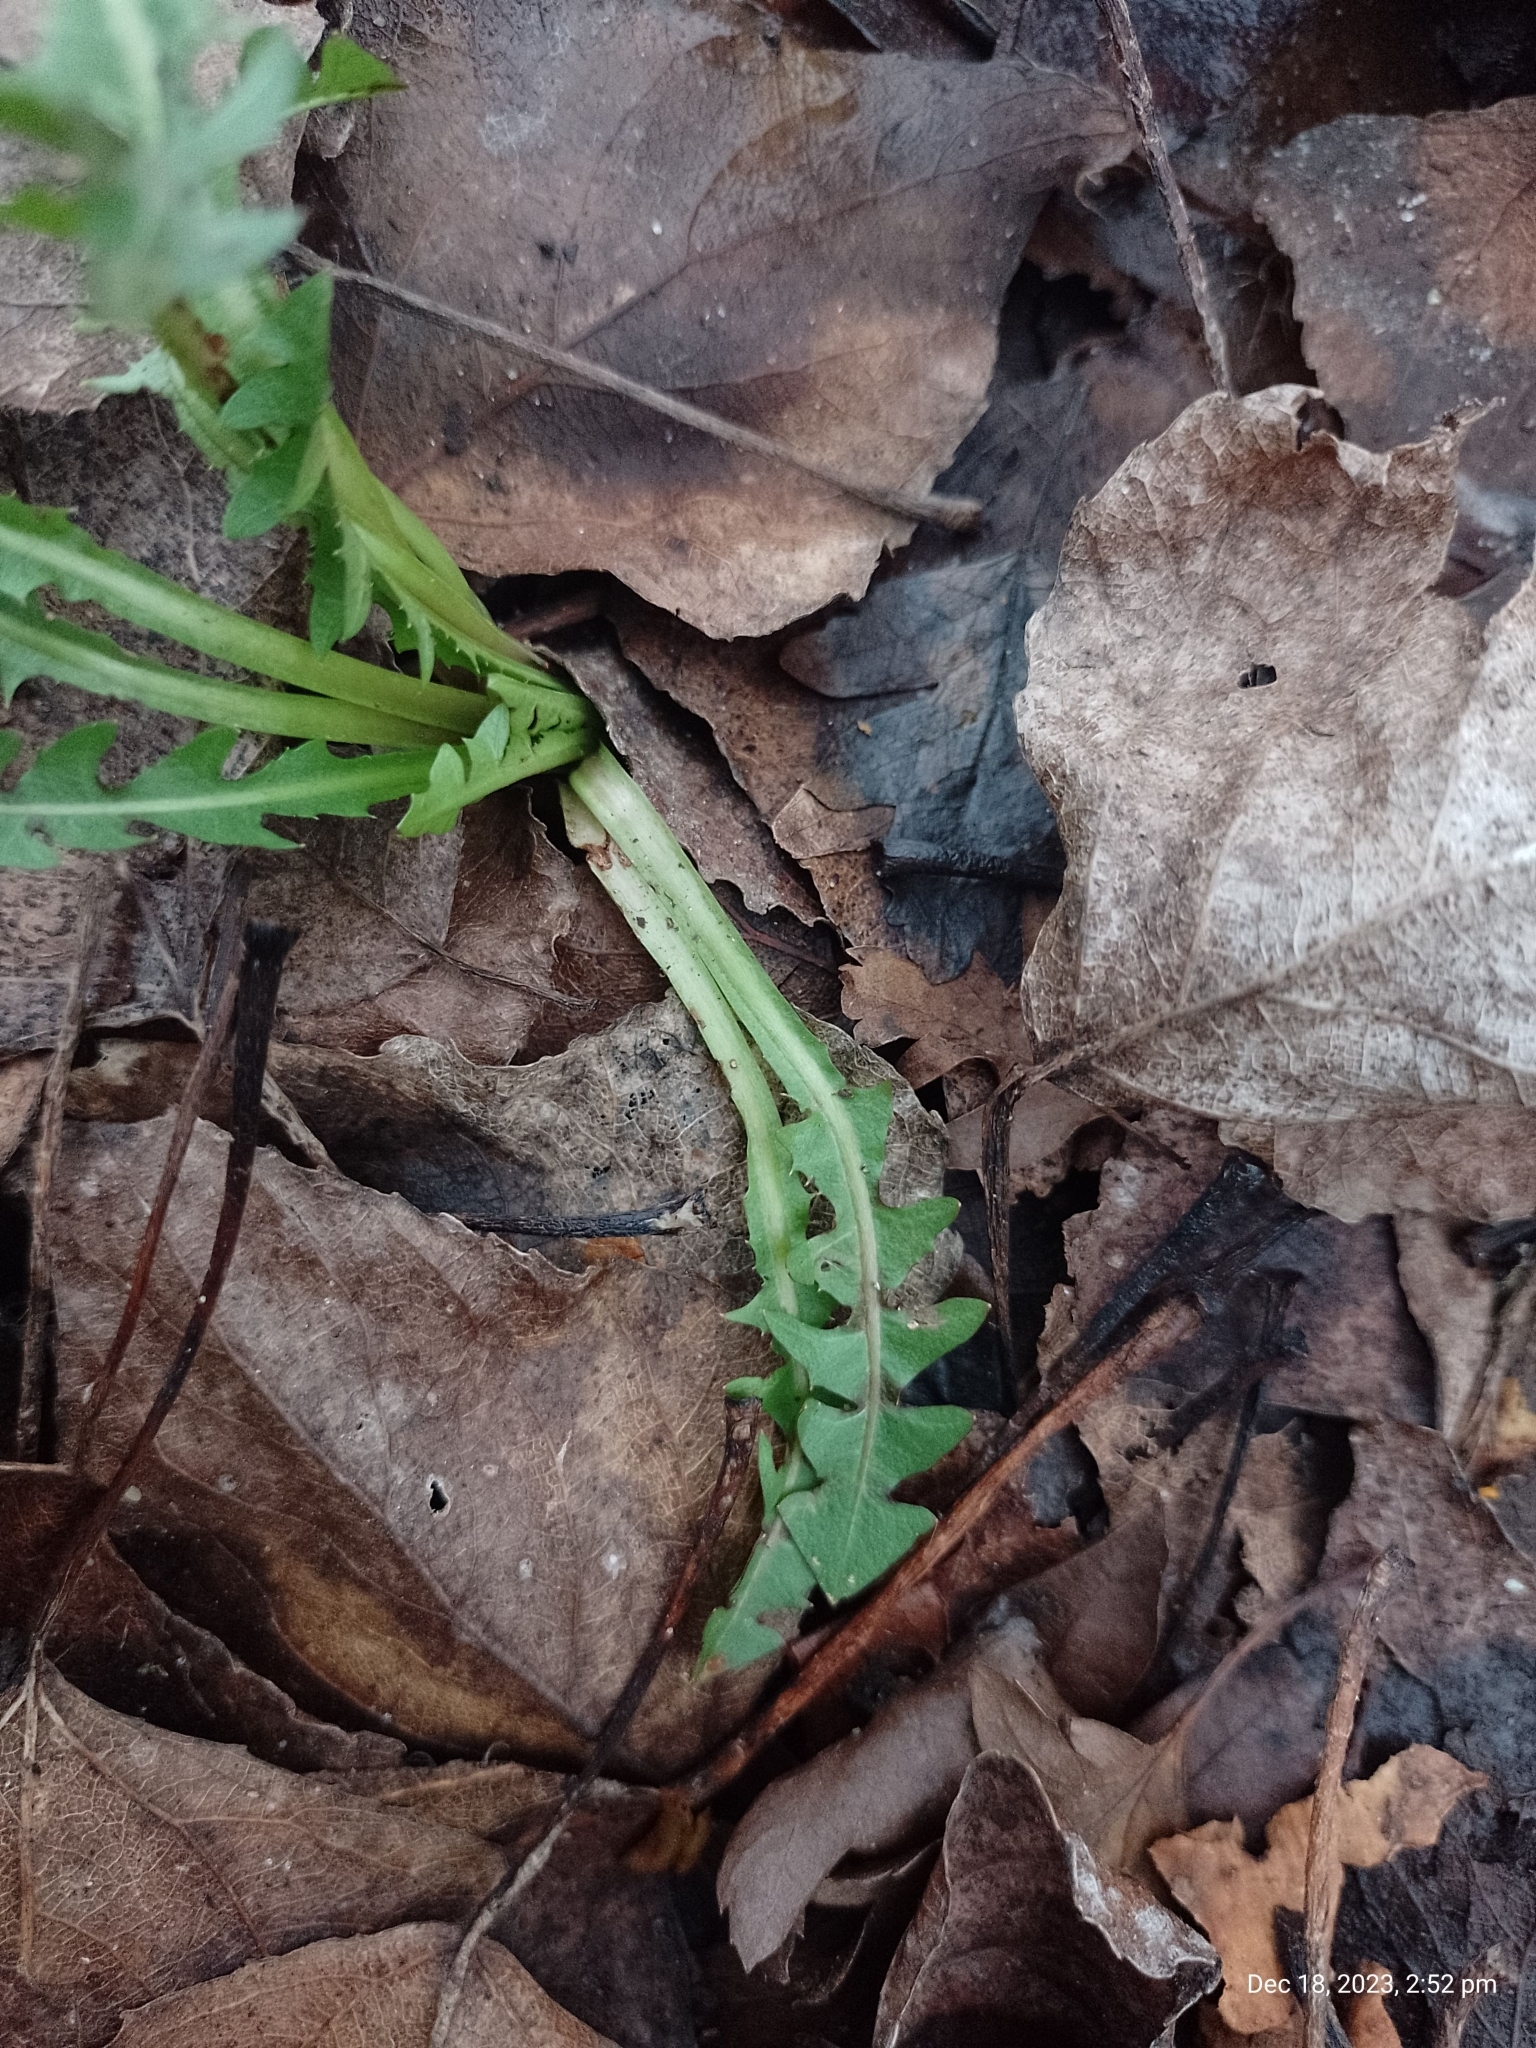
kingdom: Plantae
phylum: Tracheophyta
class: Magnoliopsida
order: Asterales
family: Asteraceae
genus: Taraxacum
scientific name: Taraxacum officinale
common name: Common dandelion
